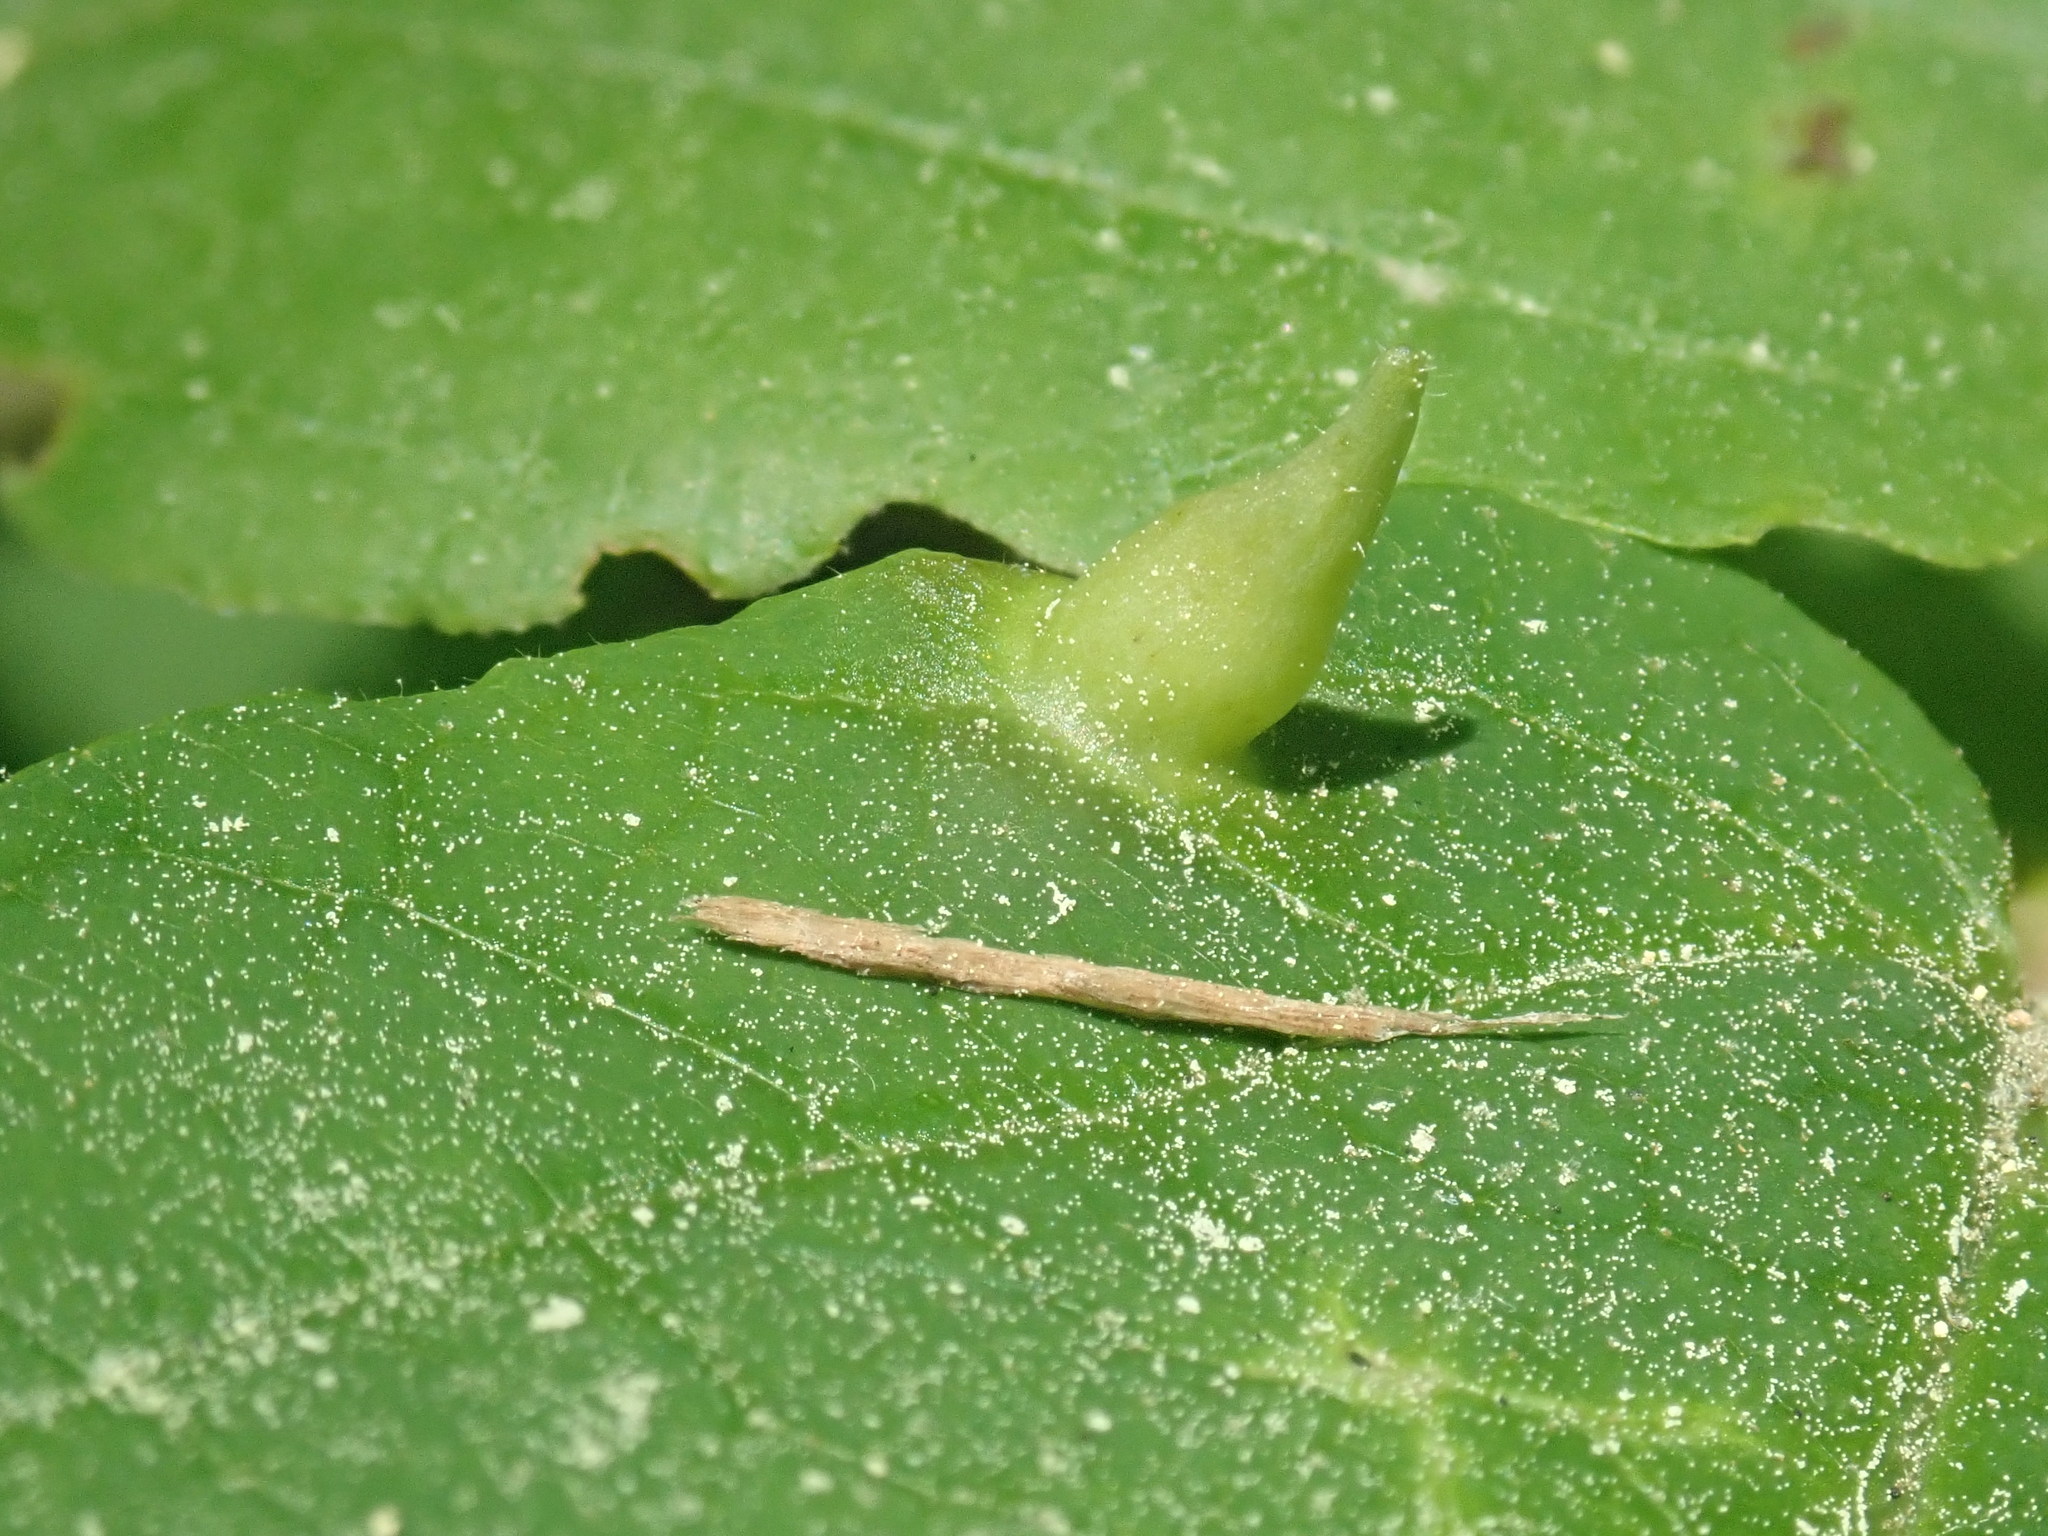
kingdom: Animalia
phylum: Arthropoda
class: Insecta
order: Hemiptera
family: Aphididae
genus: Hormaphis
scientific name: Hormaphis hamamelidis
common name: Witch-hazel cone gall aphid
